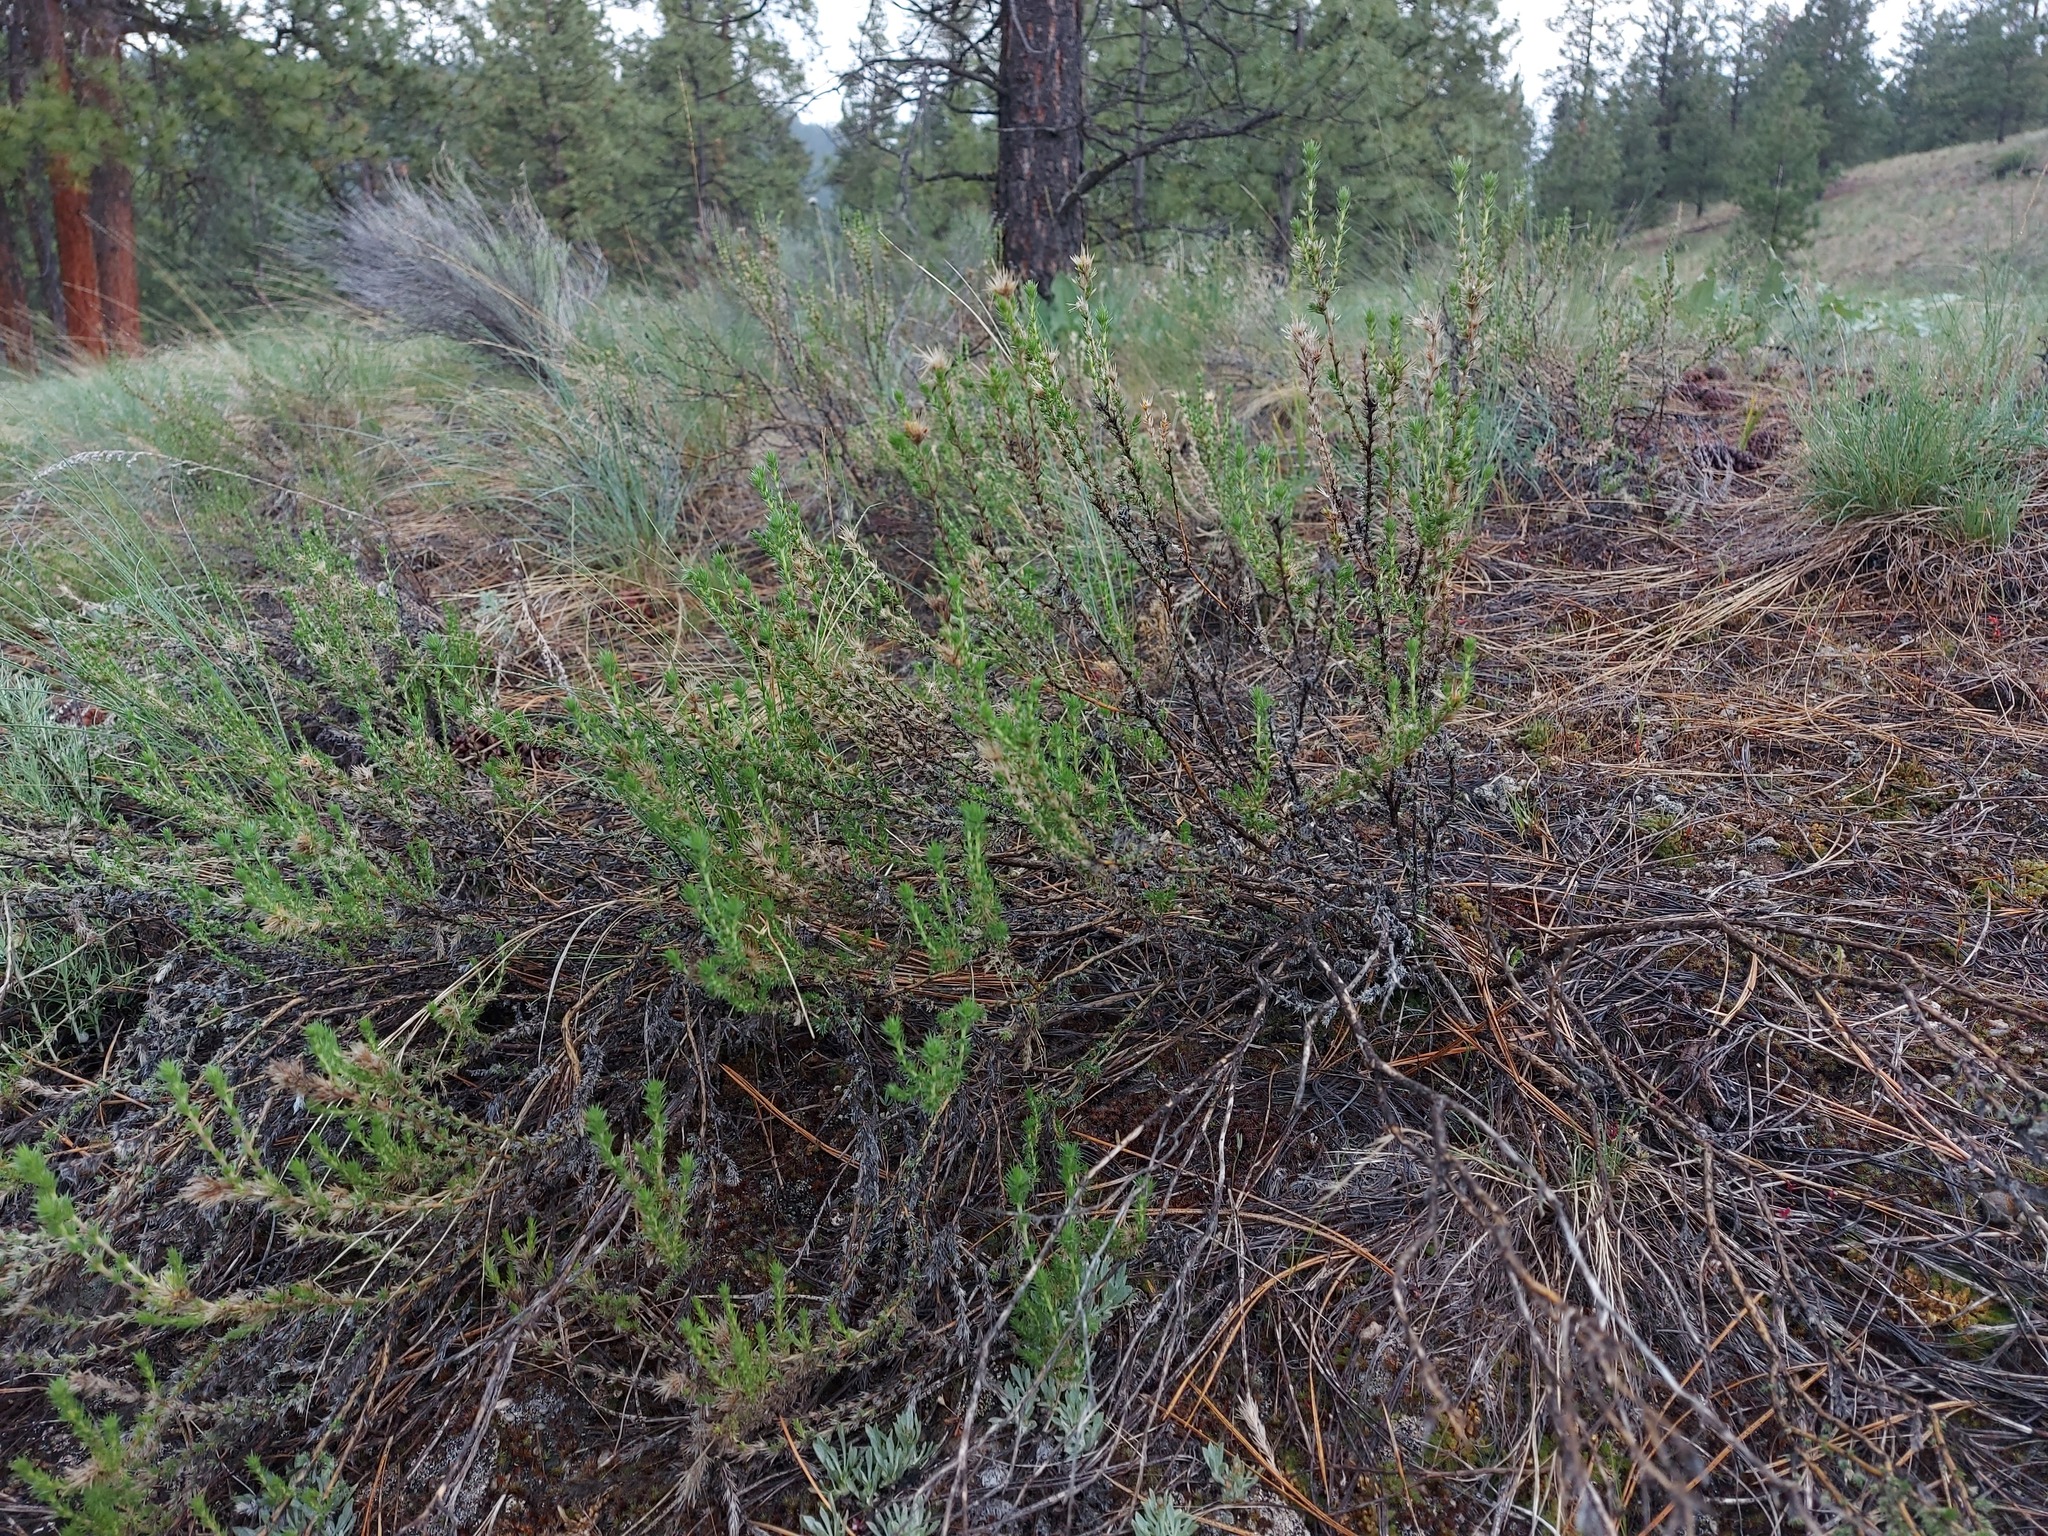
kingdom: Plantae
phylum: Tracheophyta
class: Magnoliopsida
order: Ericales
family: Polemoniaceae
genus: Linanthus
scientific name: Linanthus pungens
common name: Granite prickly phlox
